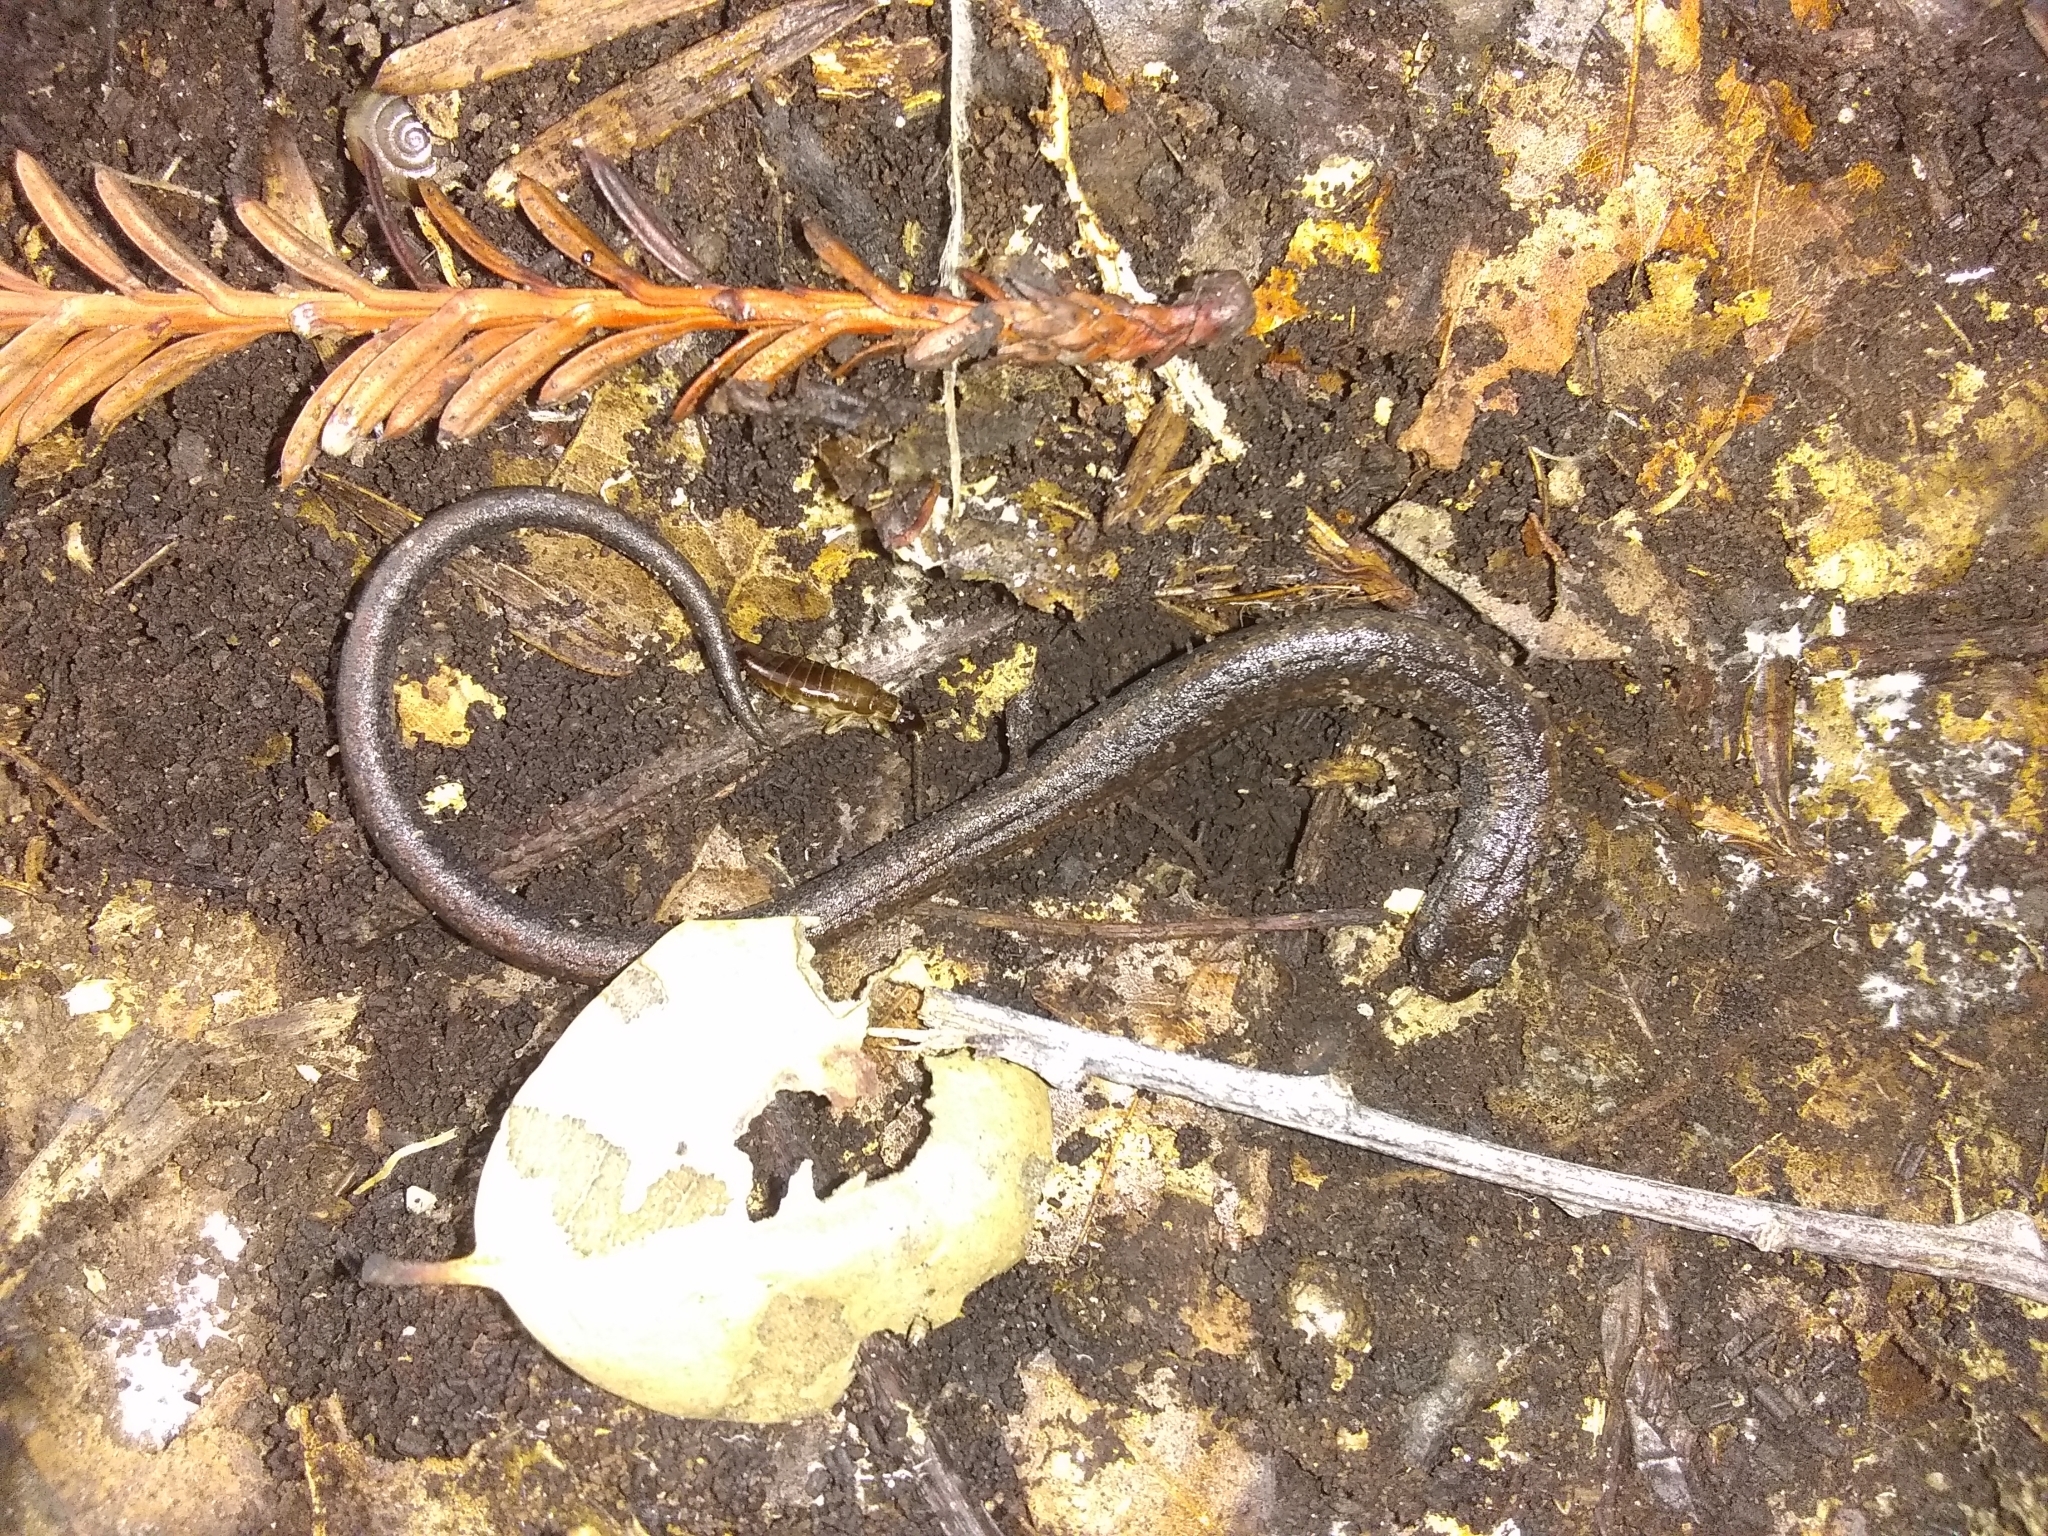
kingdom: Animalia
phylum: Chordata
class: Amphibia
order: Caudata
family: Plethodontidae
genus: Batrachoseps
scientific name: Batrachoseps attenuatus
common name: California slender salamander
